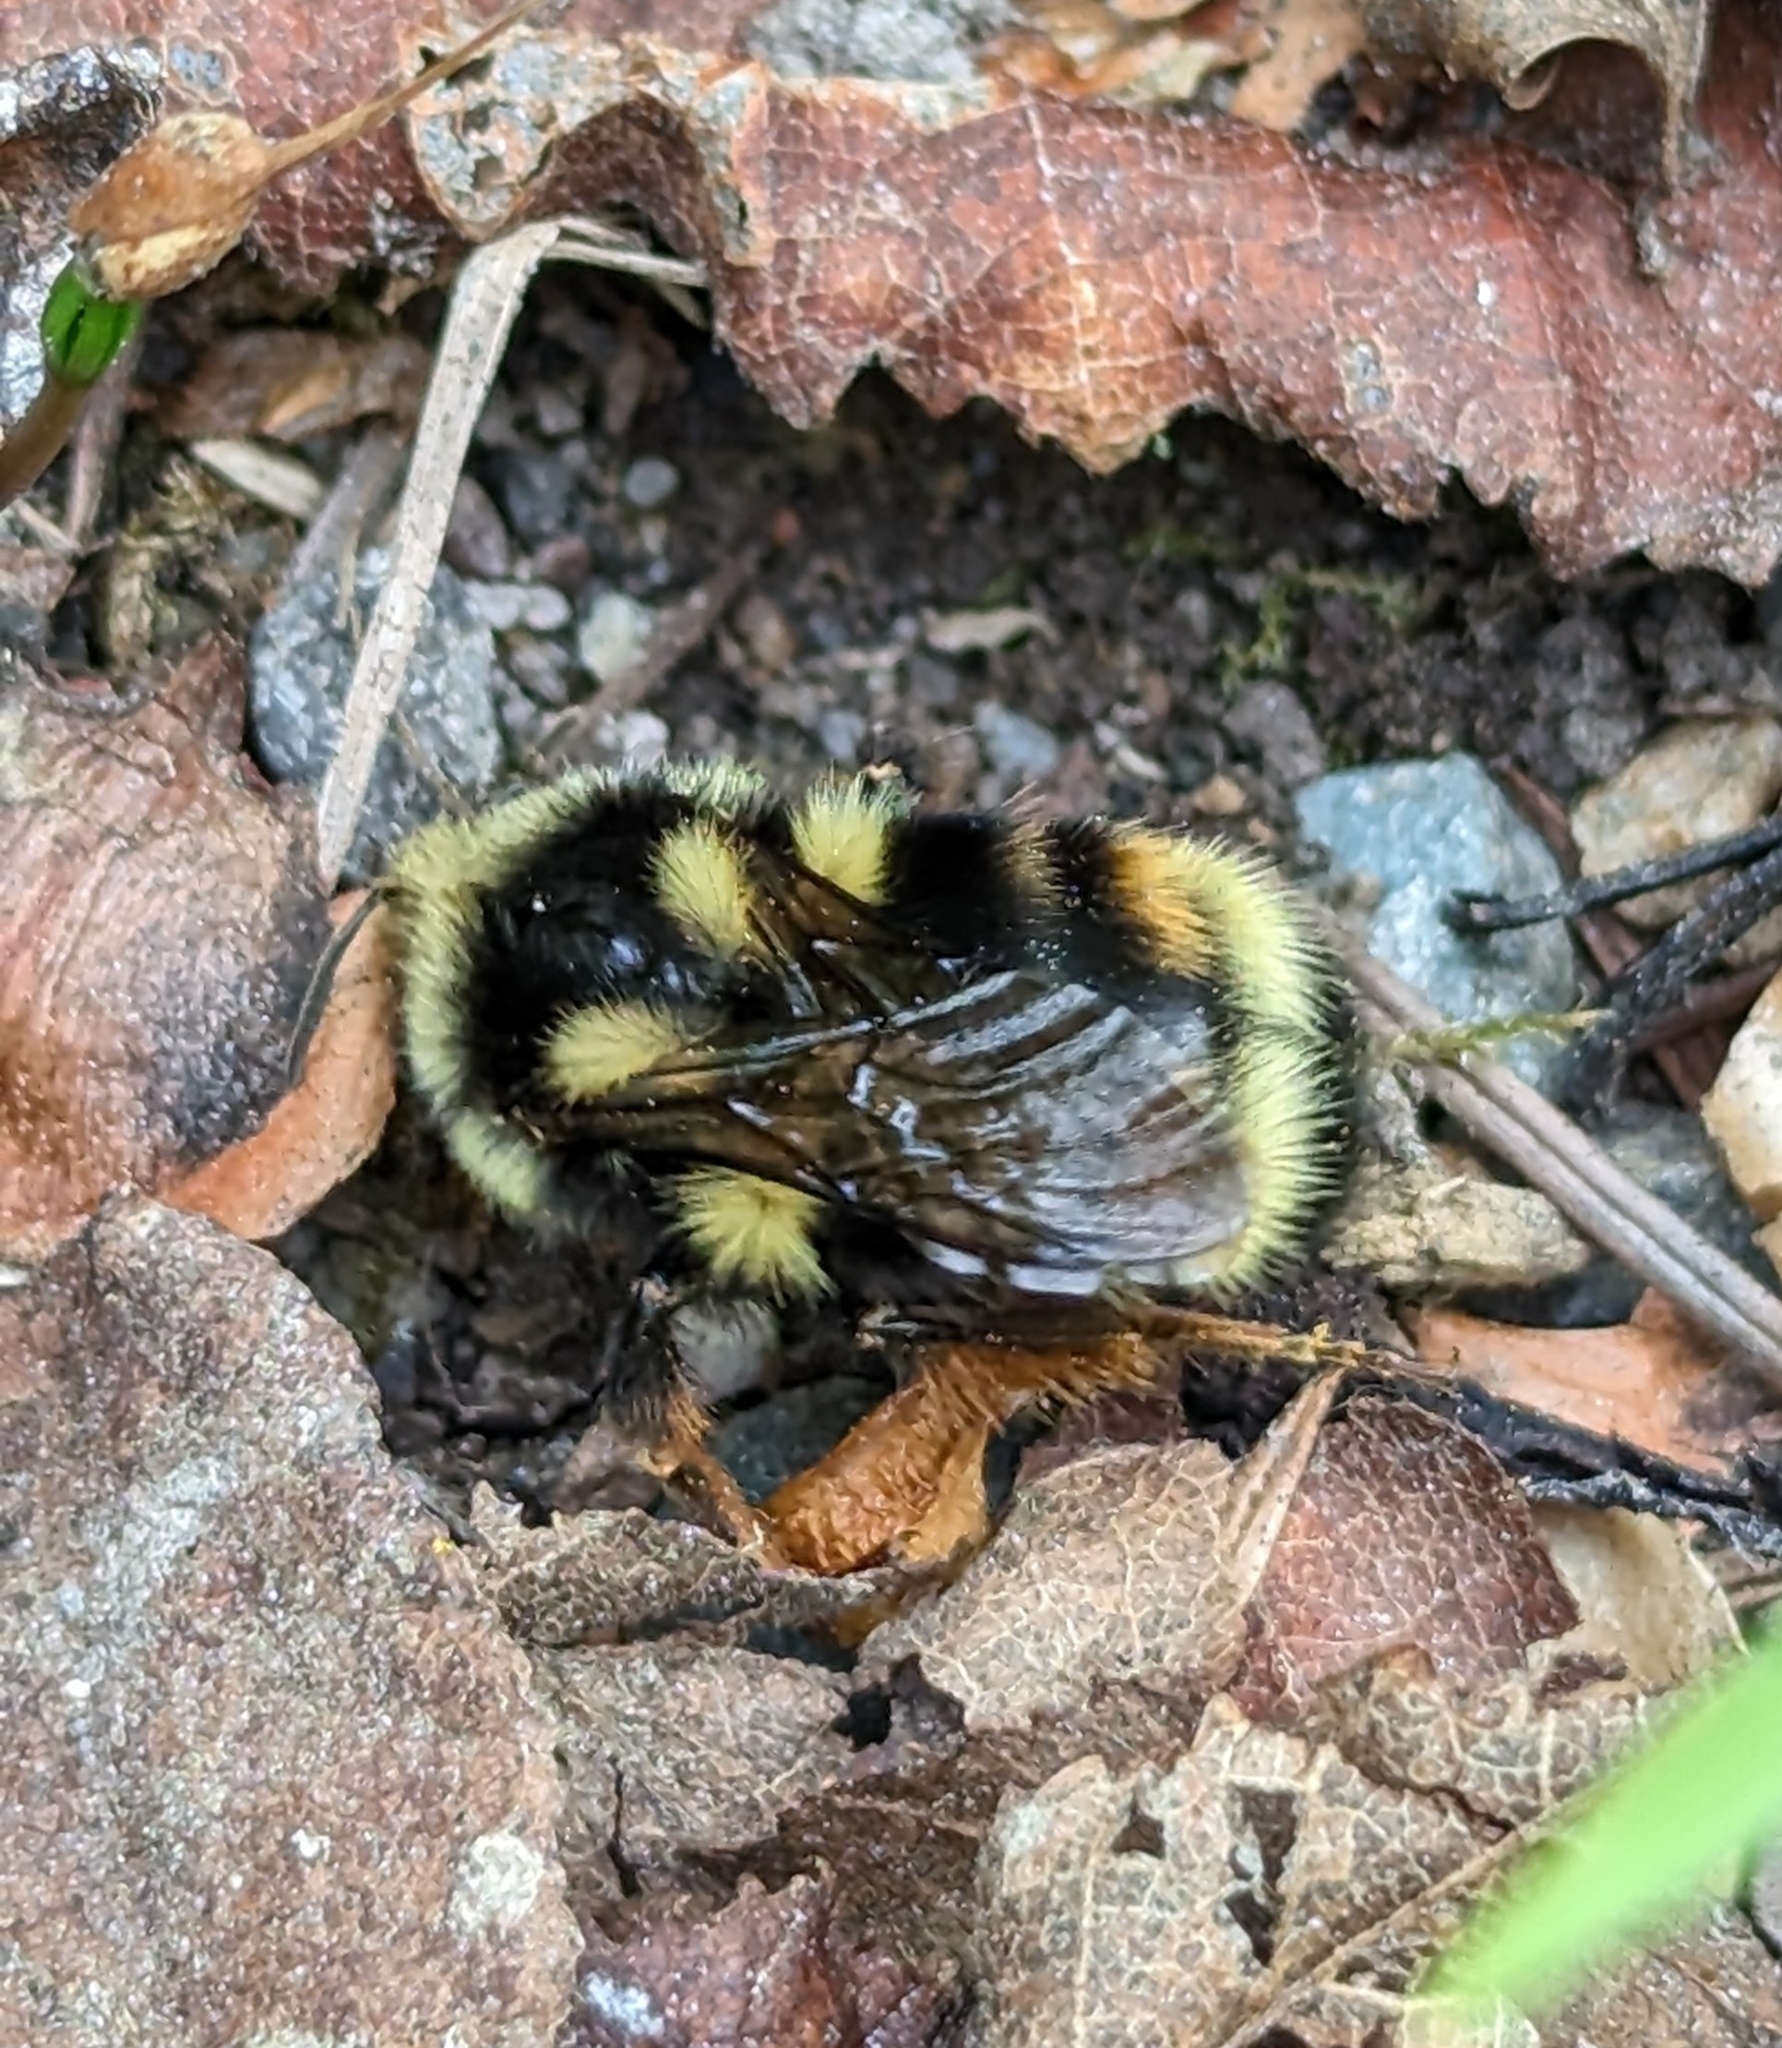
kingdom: Animalia
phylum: Arthropoda
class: Insecta
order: Hymenoptera
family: Apidae
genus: Bombus
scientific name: Bombus vancouverensis
